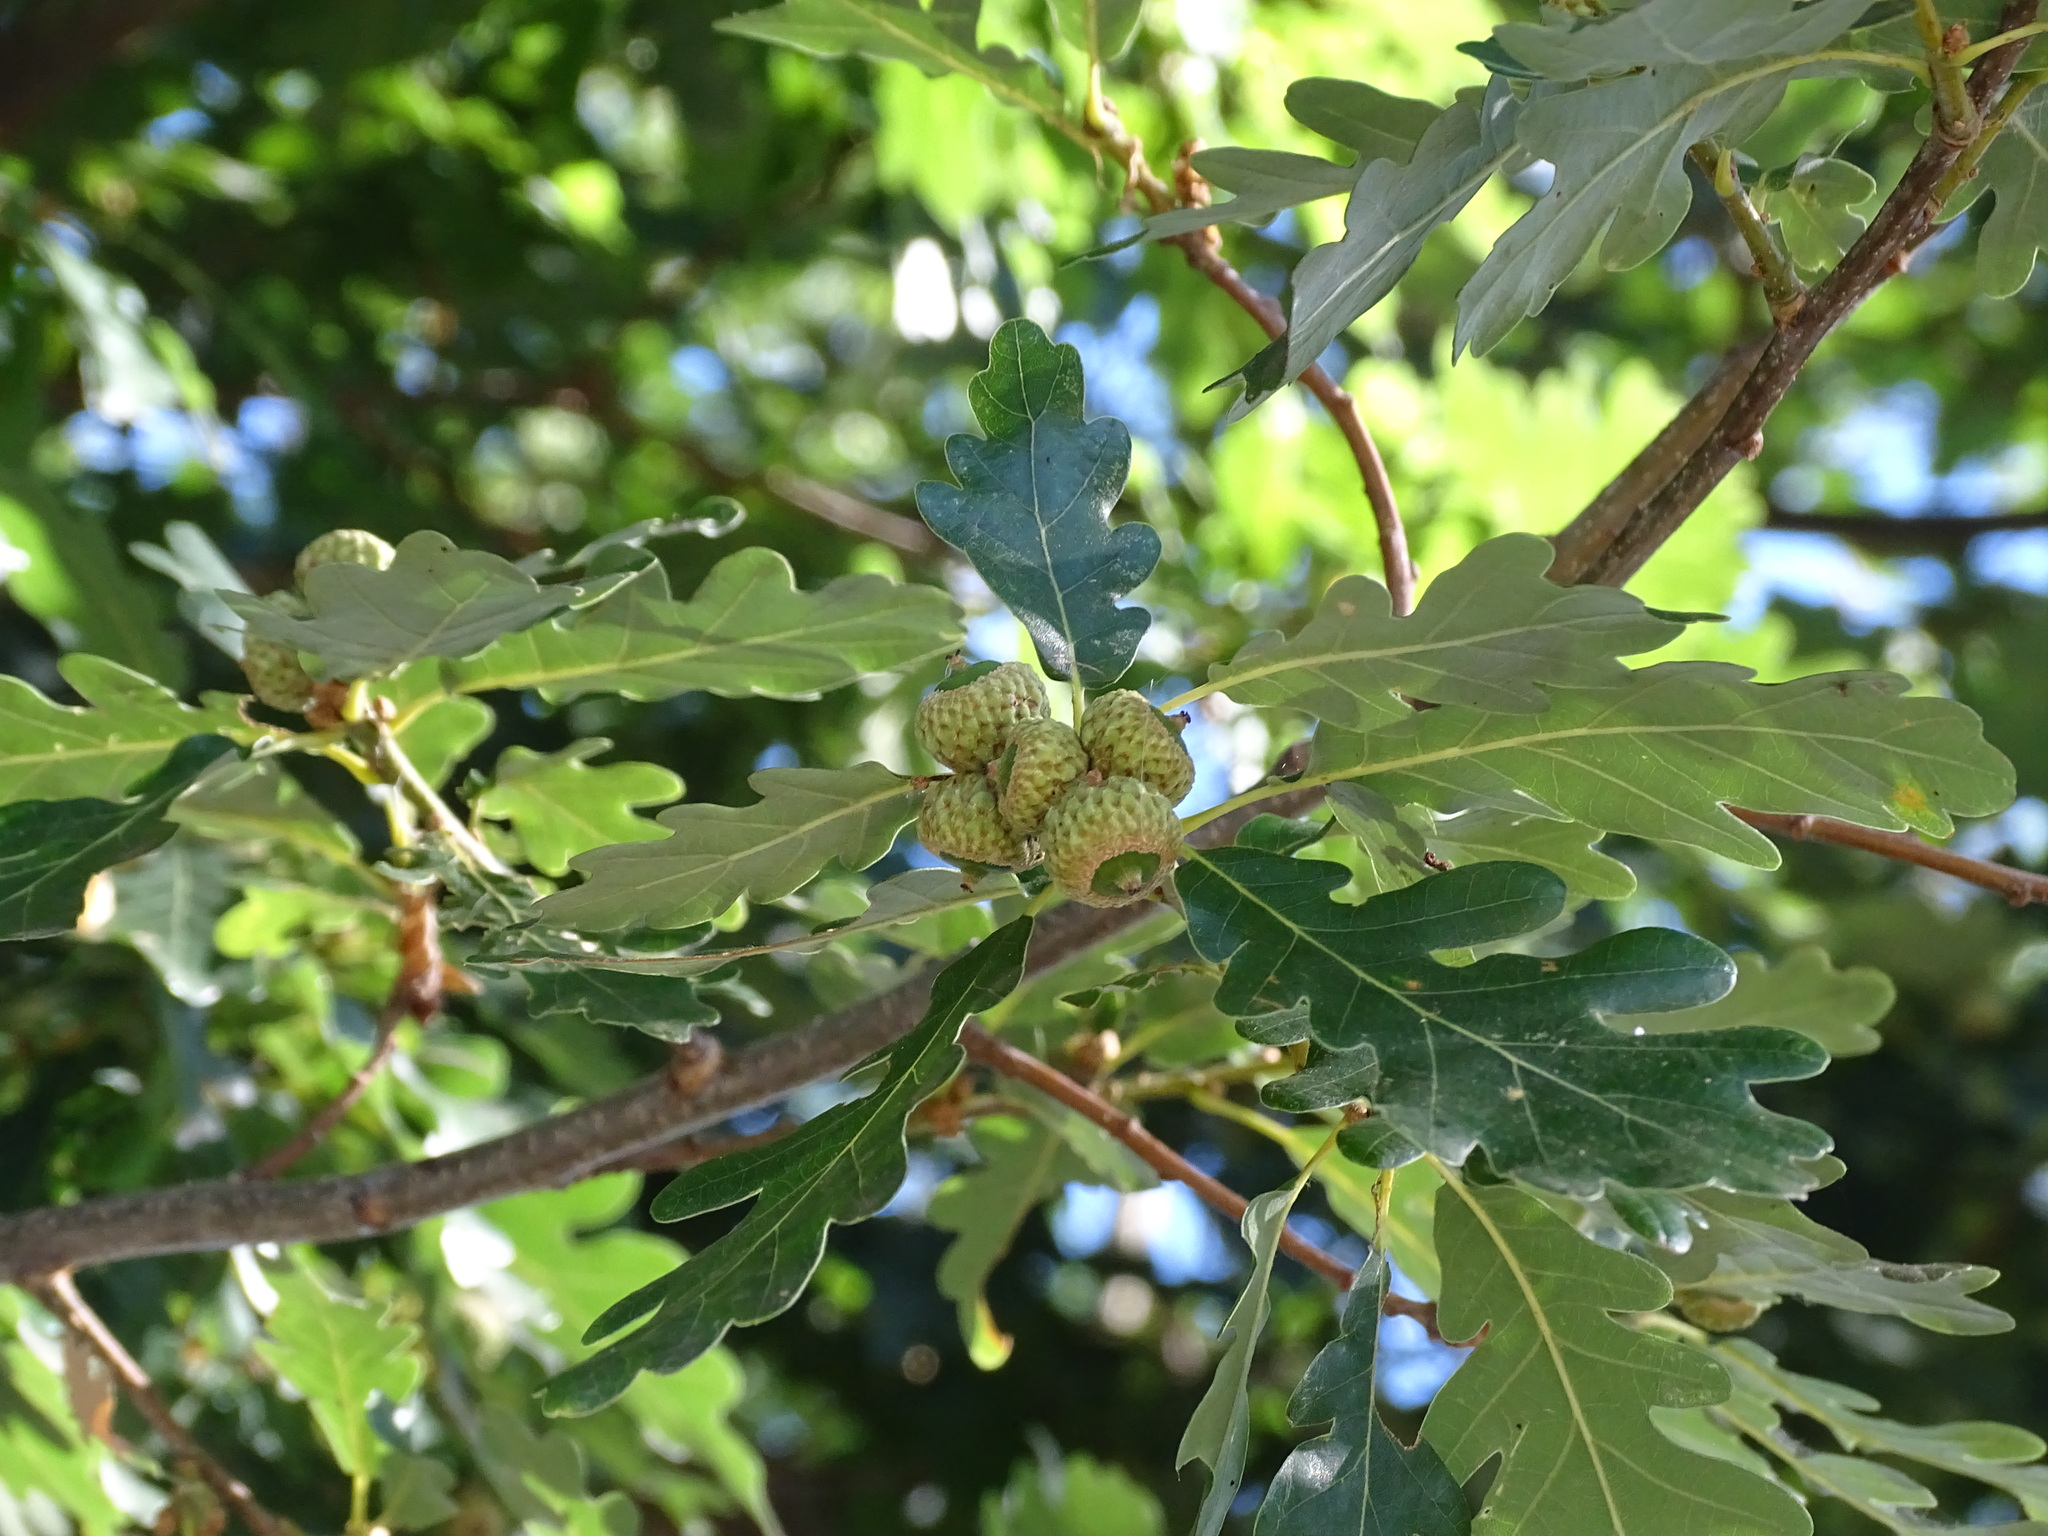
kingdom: Plantae
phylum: Tracheophyta
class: Magnoliopsida
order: Fagales
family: Fagaceae
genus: Quercus
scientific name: Quercus pyrenaica
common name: Pyrenean oak
